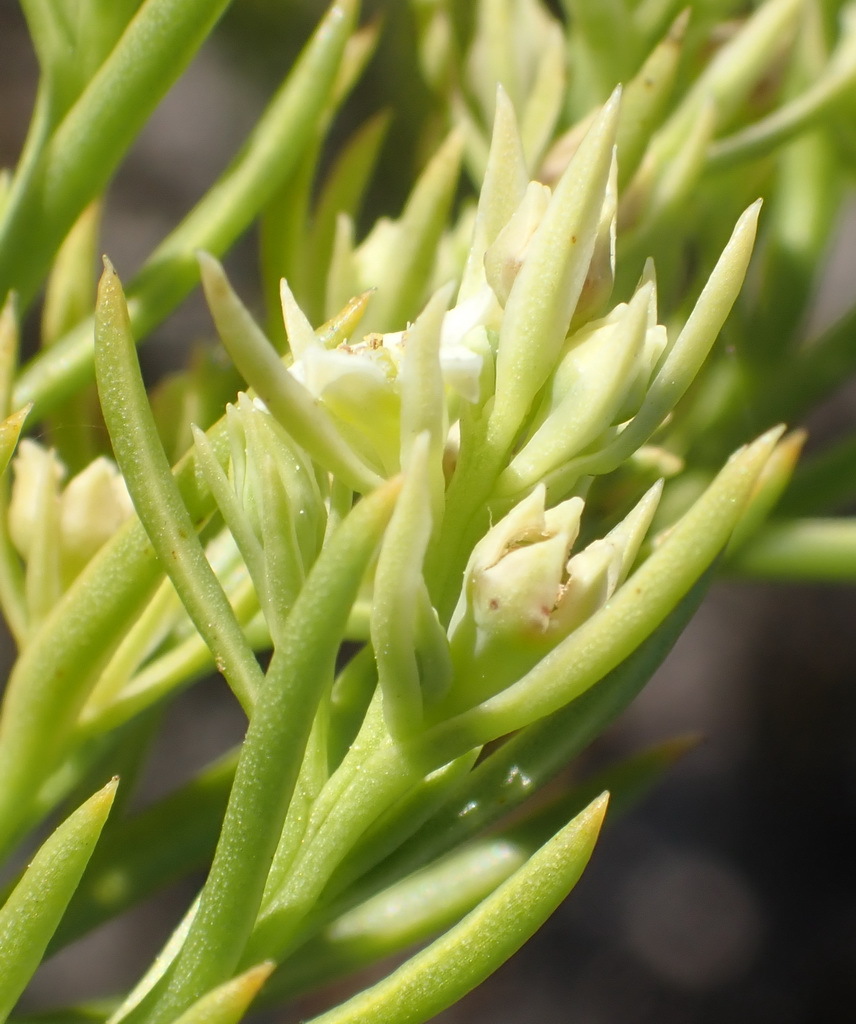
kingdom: Plantae
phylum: Tracheophyta
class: Magnoliopsida
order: Santalales
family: Thesiaceae
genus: Thesium
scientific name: Thesium foliosum
